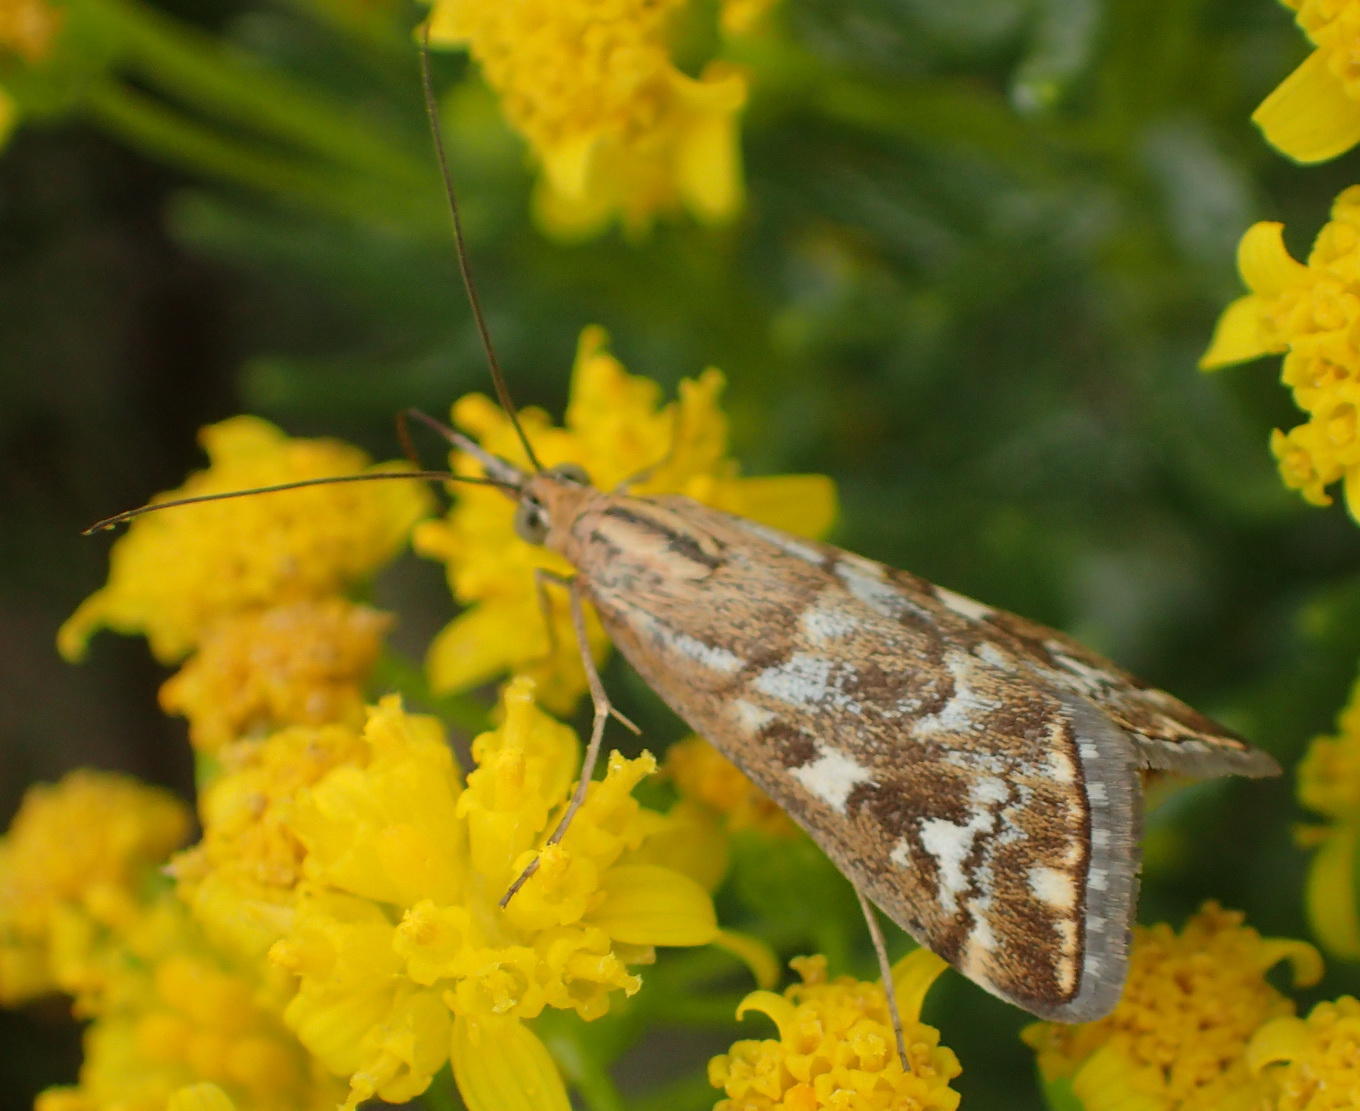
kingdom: Animalia
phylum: Arthropoda
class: Insecta
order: Lepidoptera
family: Crambidae
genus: Loxostege
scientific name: Loxostege frustalis
